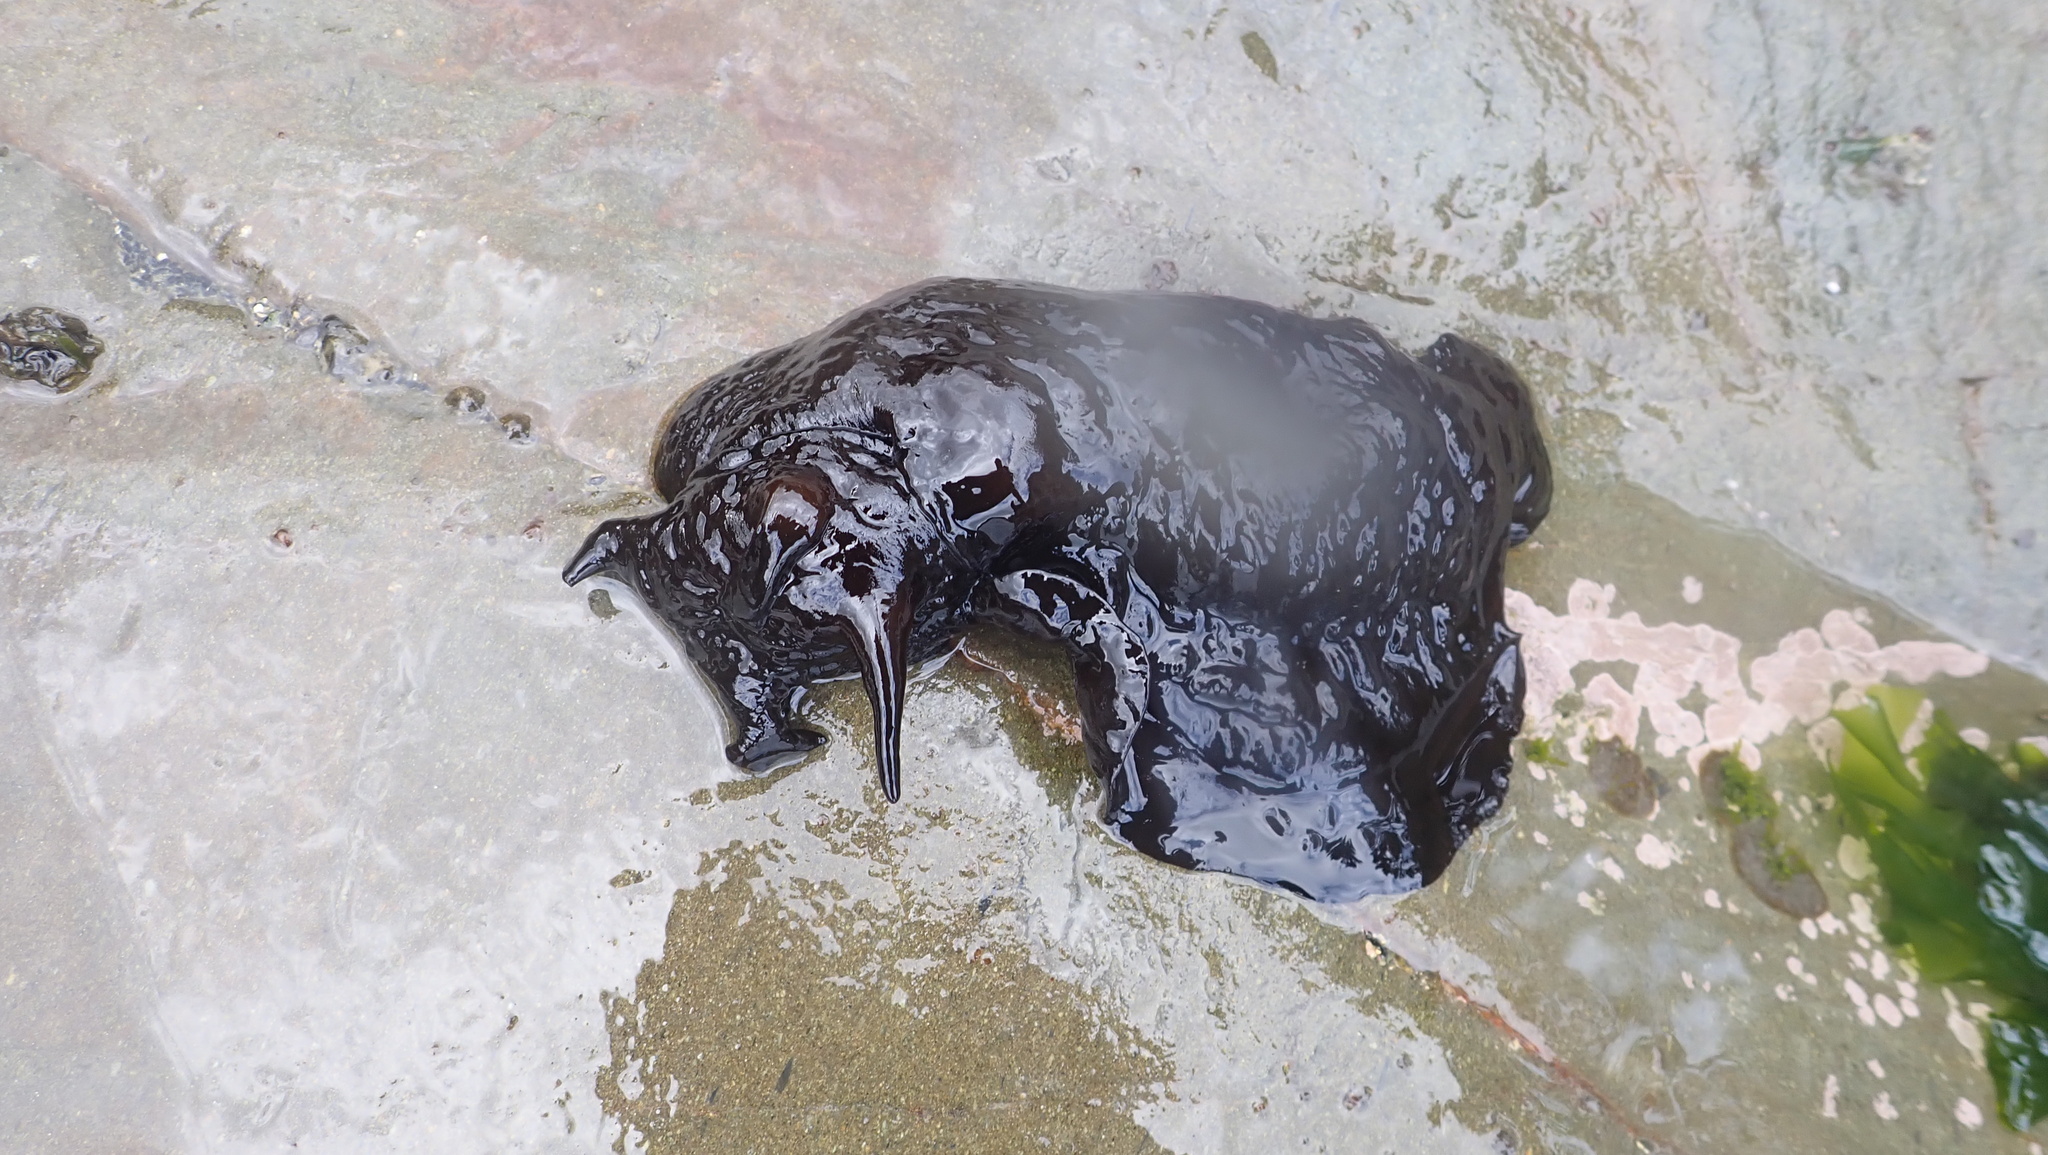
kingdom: Animalia
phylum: Mollusca
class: Gastropoda
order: Aplysiida
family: Aplysiidae
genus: Aplysia
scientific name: Aplysia juliana
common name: Walking sea hare
